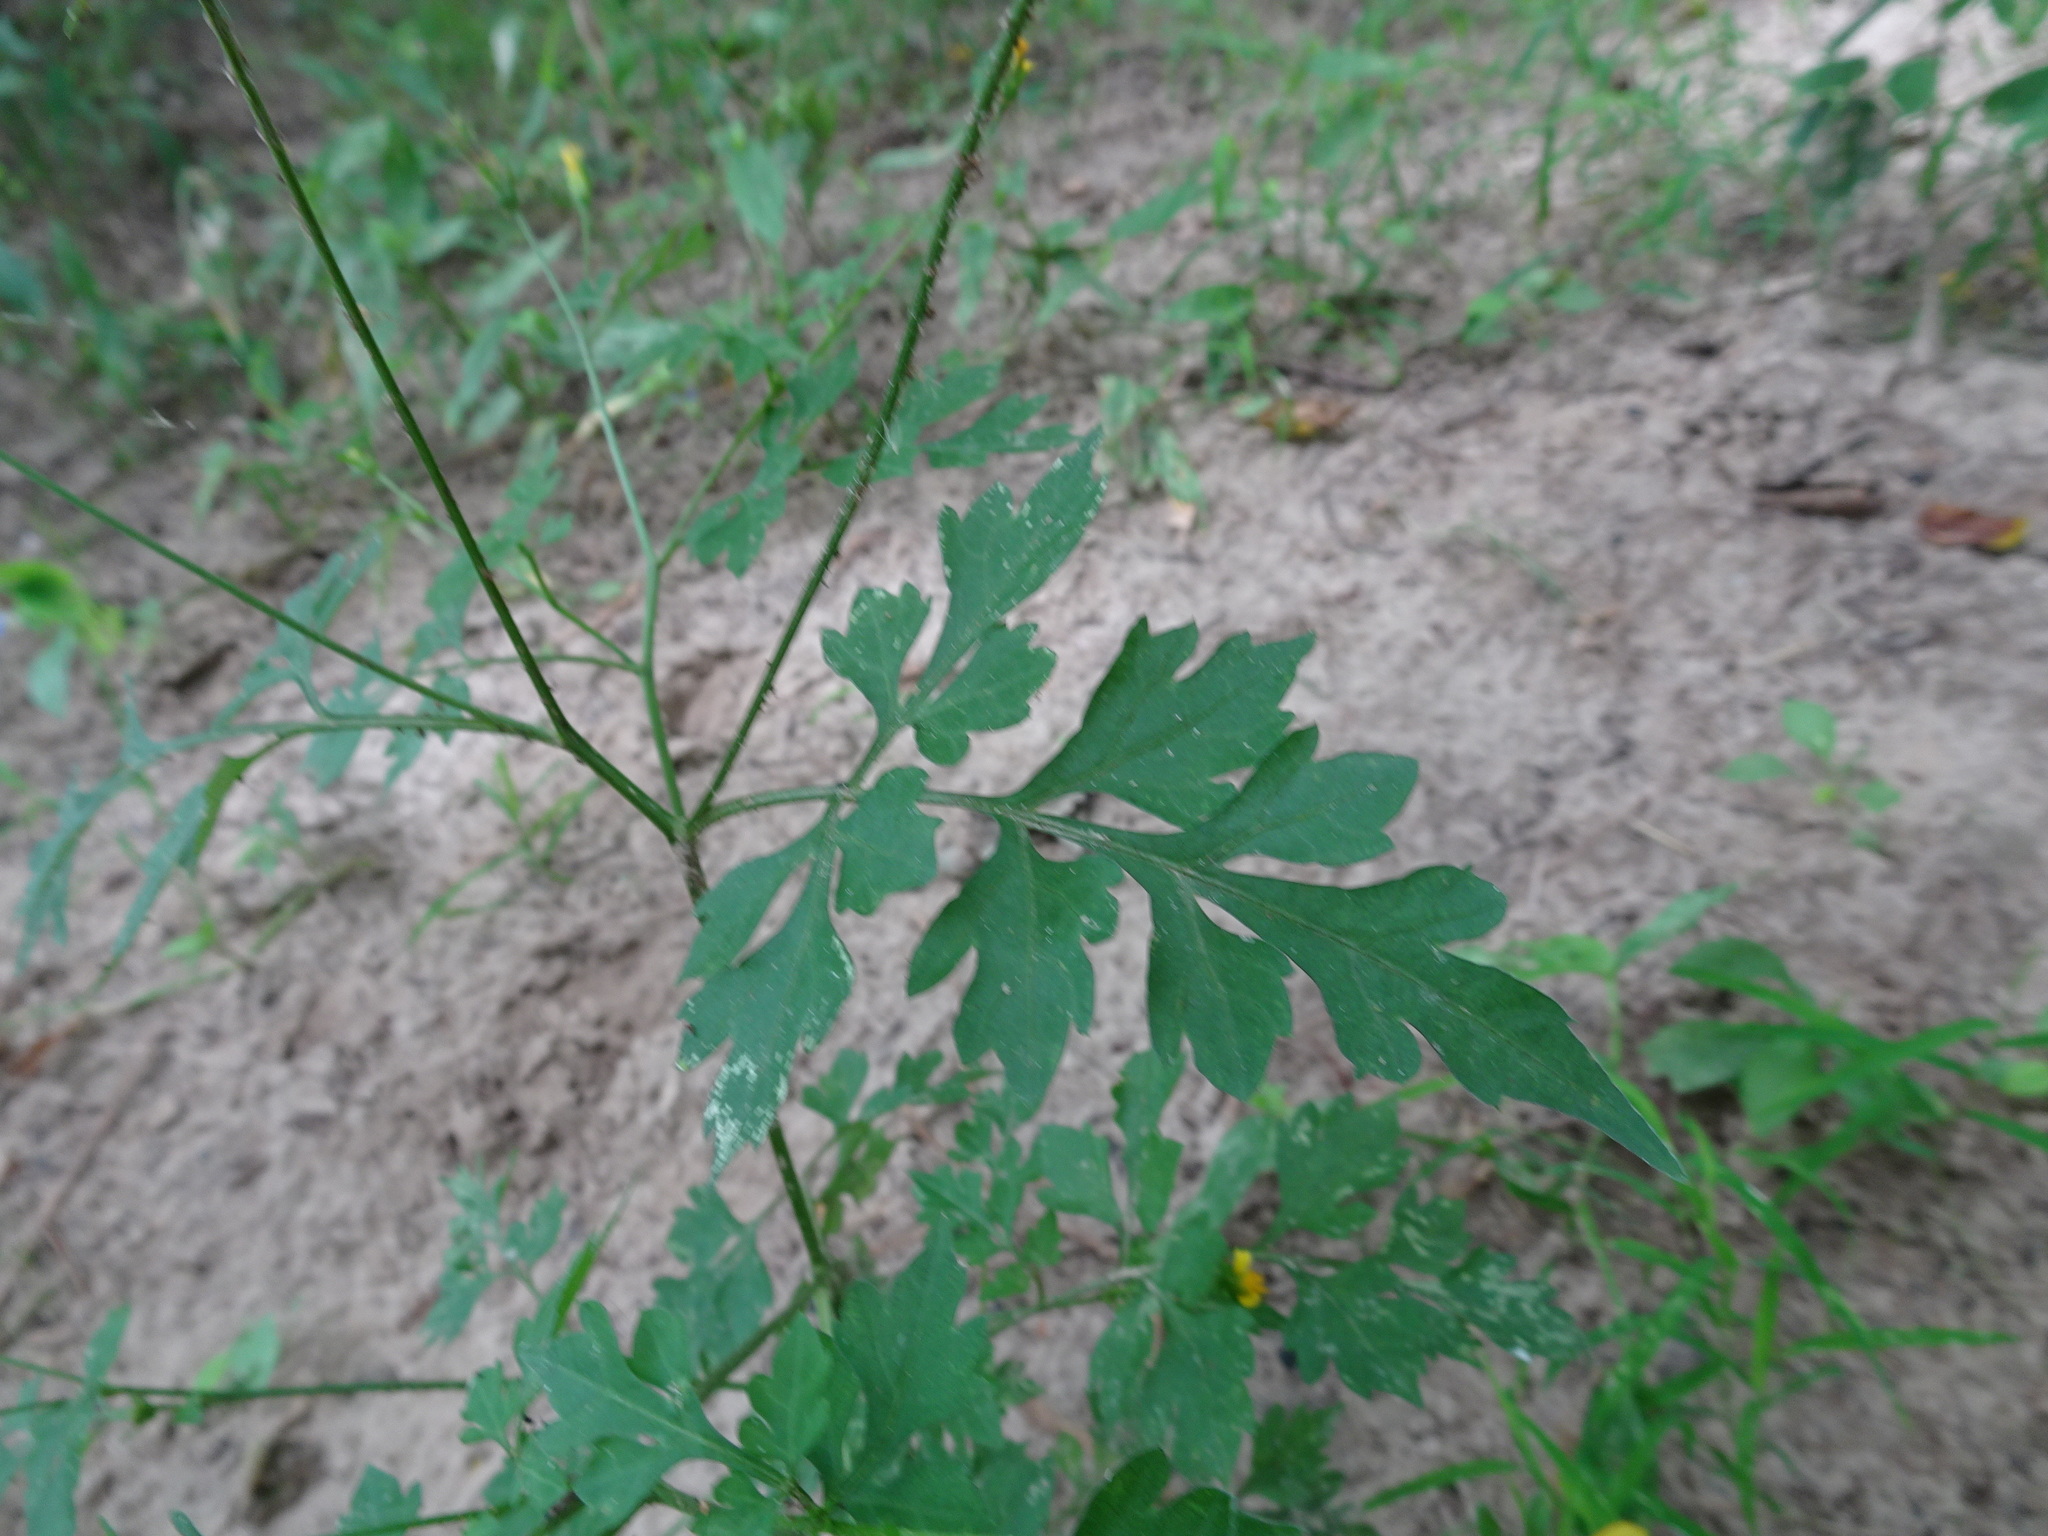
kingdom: Plantae
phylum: Tracheophyta
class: Magnoliopsida
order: Asterales
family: Asteraceae
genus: Bidens
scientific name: Bidens bipinnata
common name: Spanish-needles
